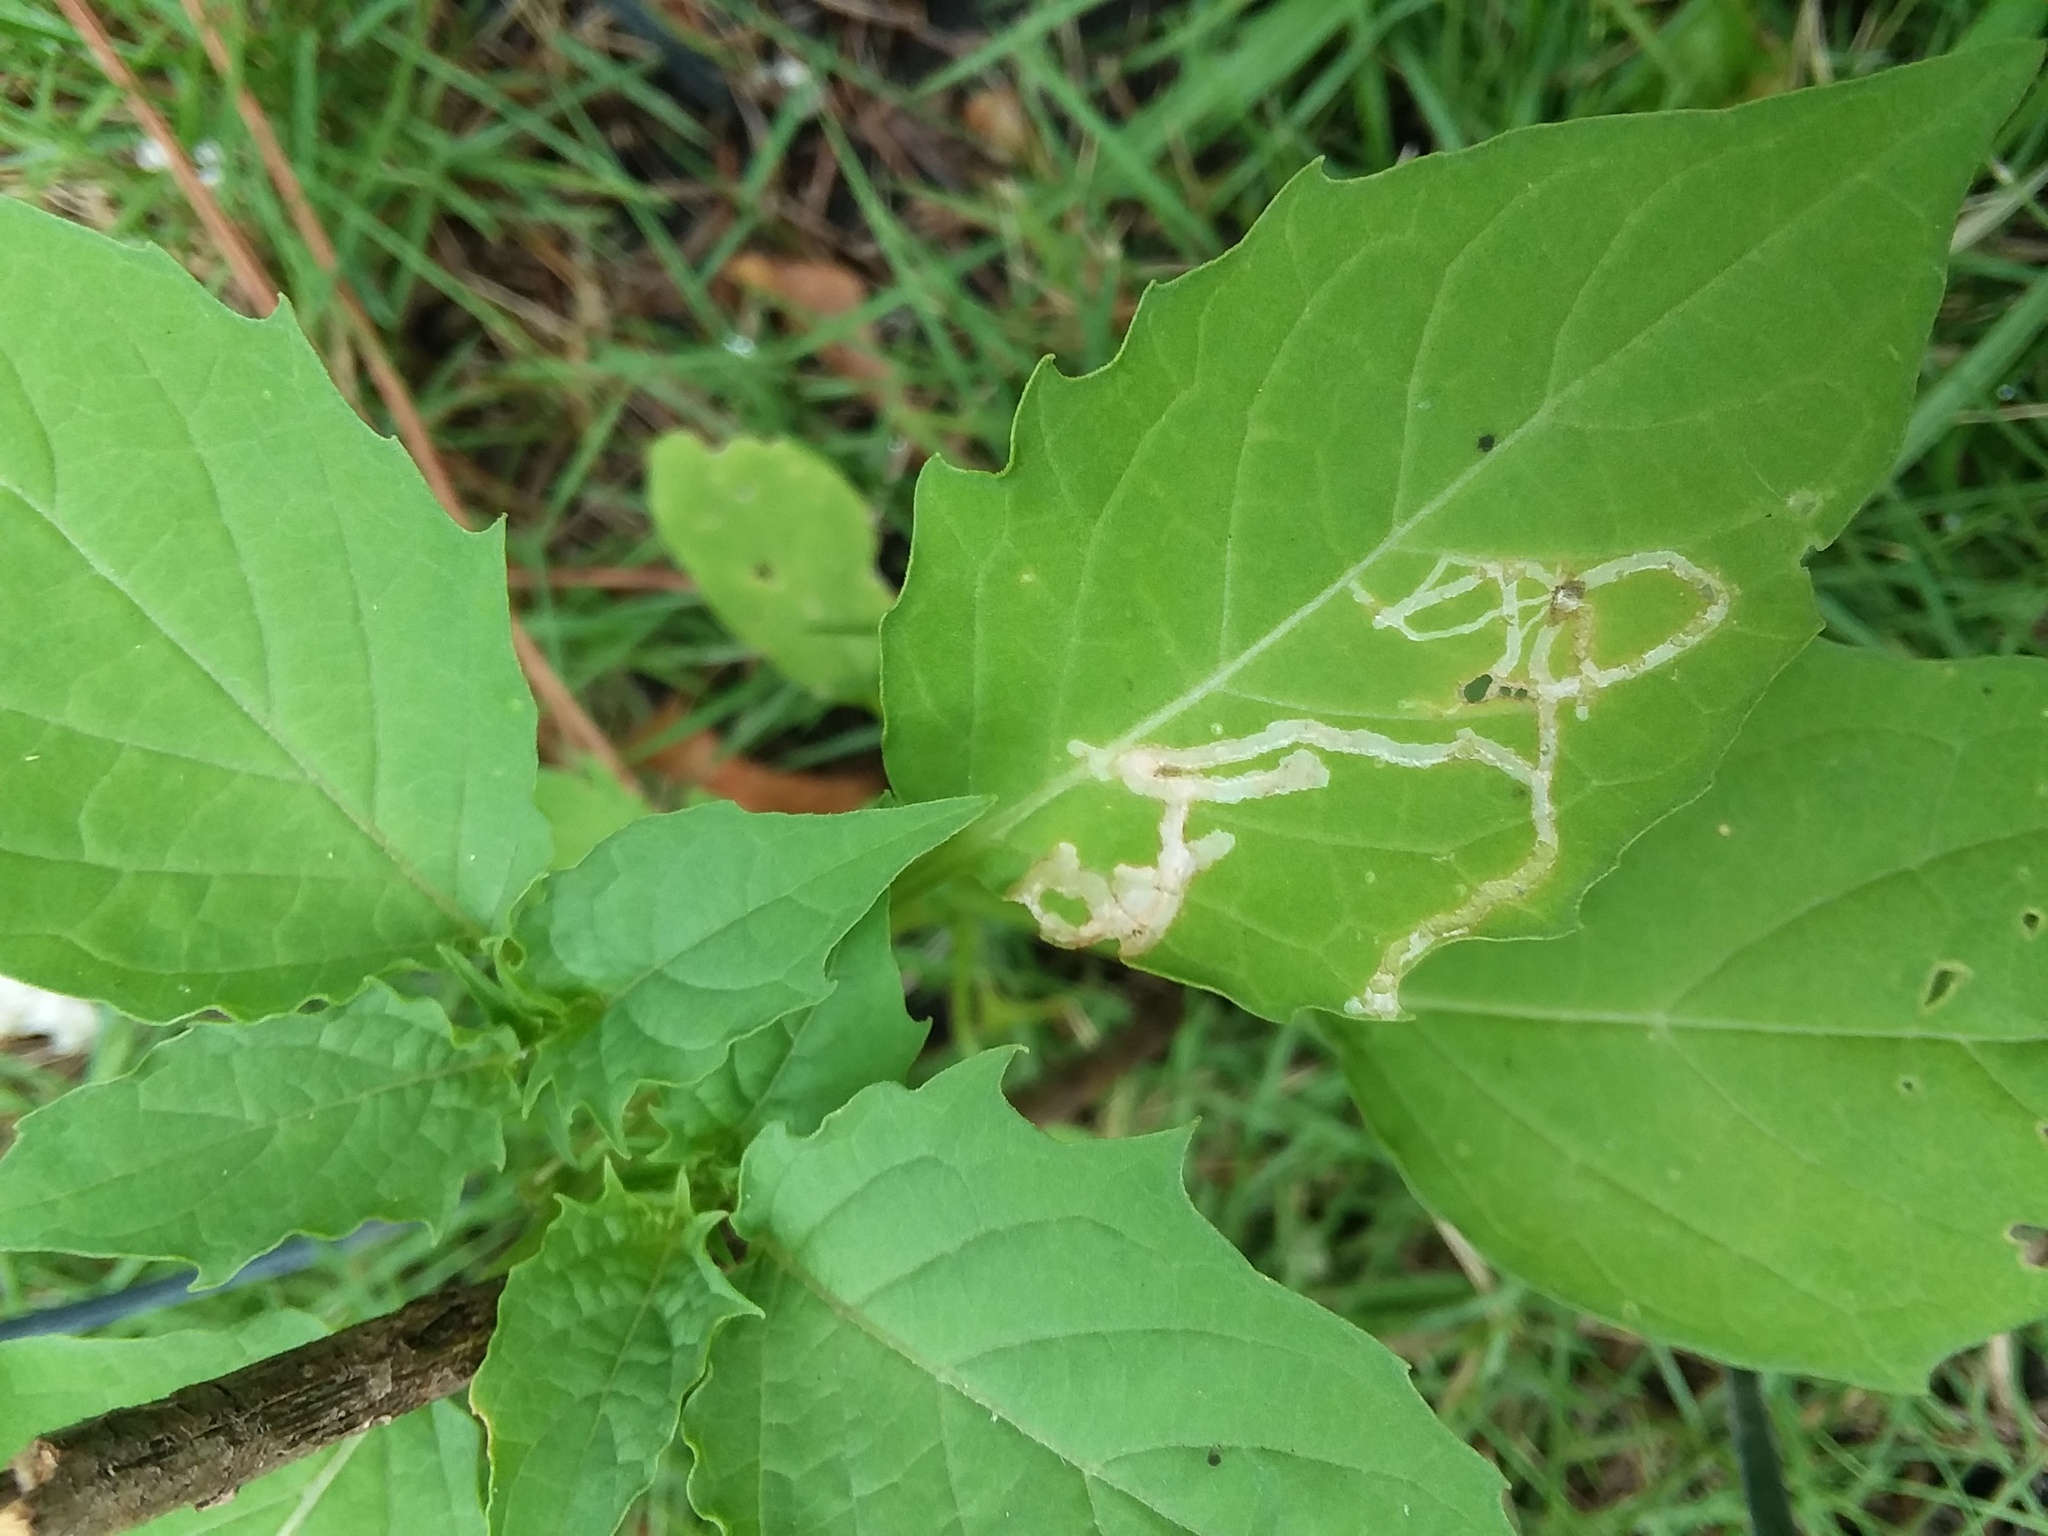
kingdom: Plantae
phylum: Tracheophyta
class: Magnoliopsida
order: Solanales
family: Solanaceae
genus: Physalis
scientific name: Physalis angulata
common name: Angular winter-cherry
